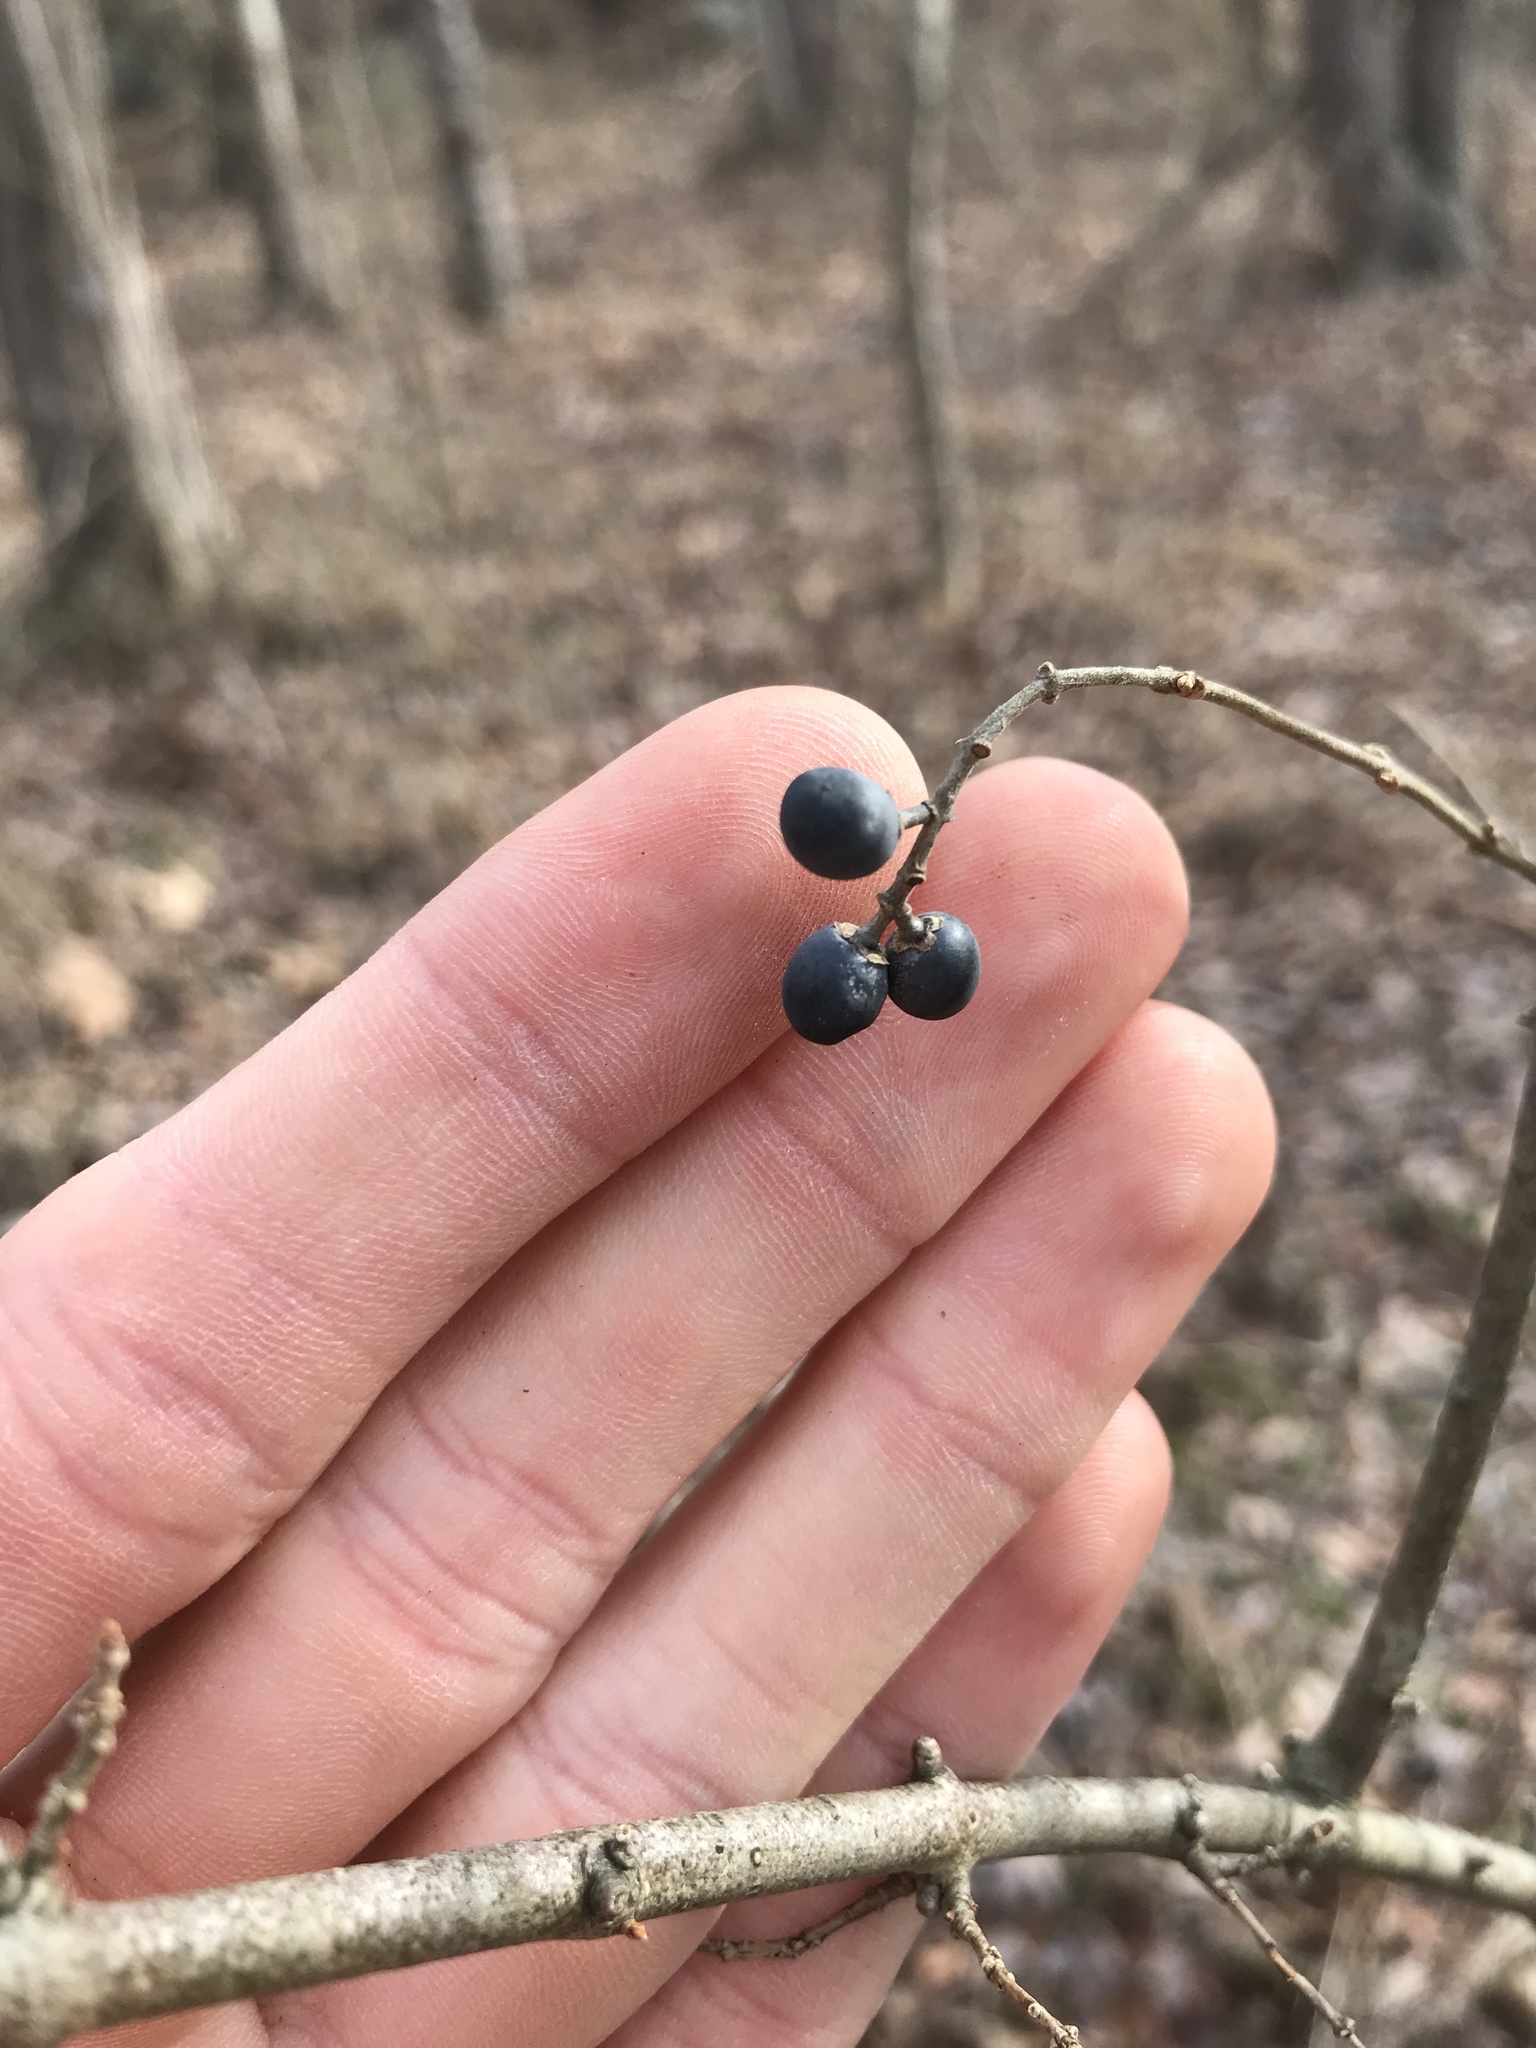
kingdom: Plantae
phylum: Tracheophyta
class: Magnoliopsida
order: Lamiales
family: Oleaceae
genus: Ligustrum
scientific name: Ligustrum obtusifolium
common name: Border privet
